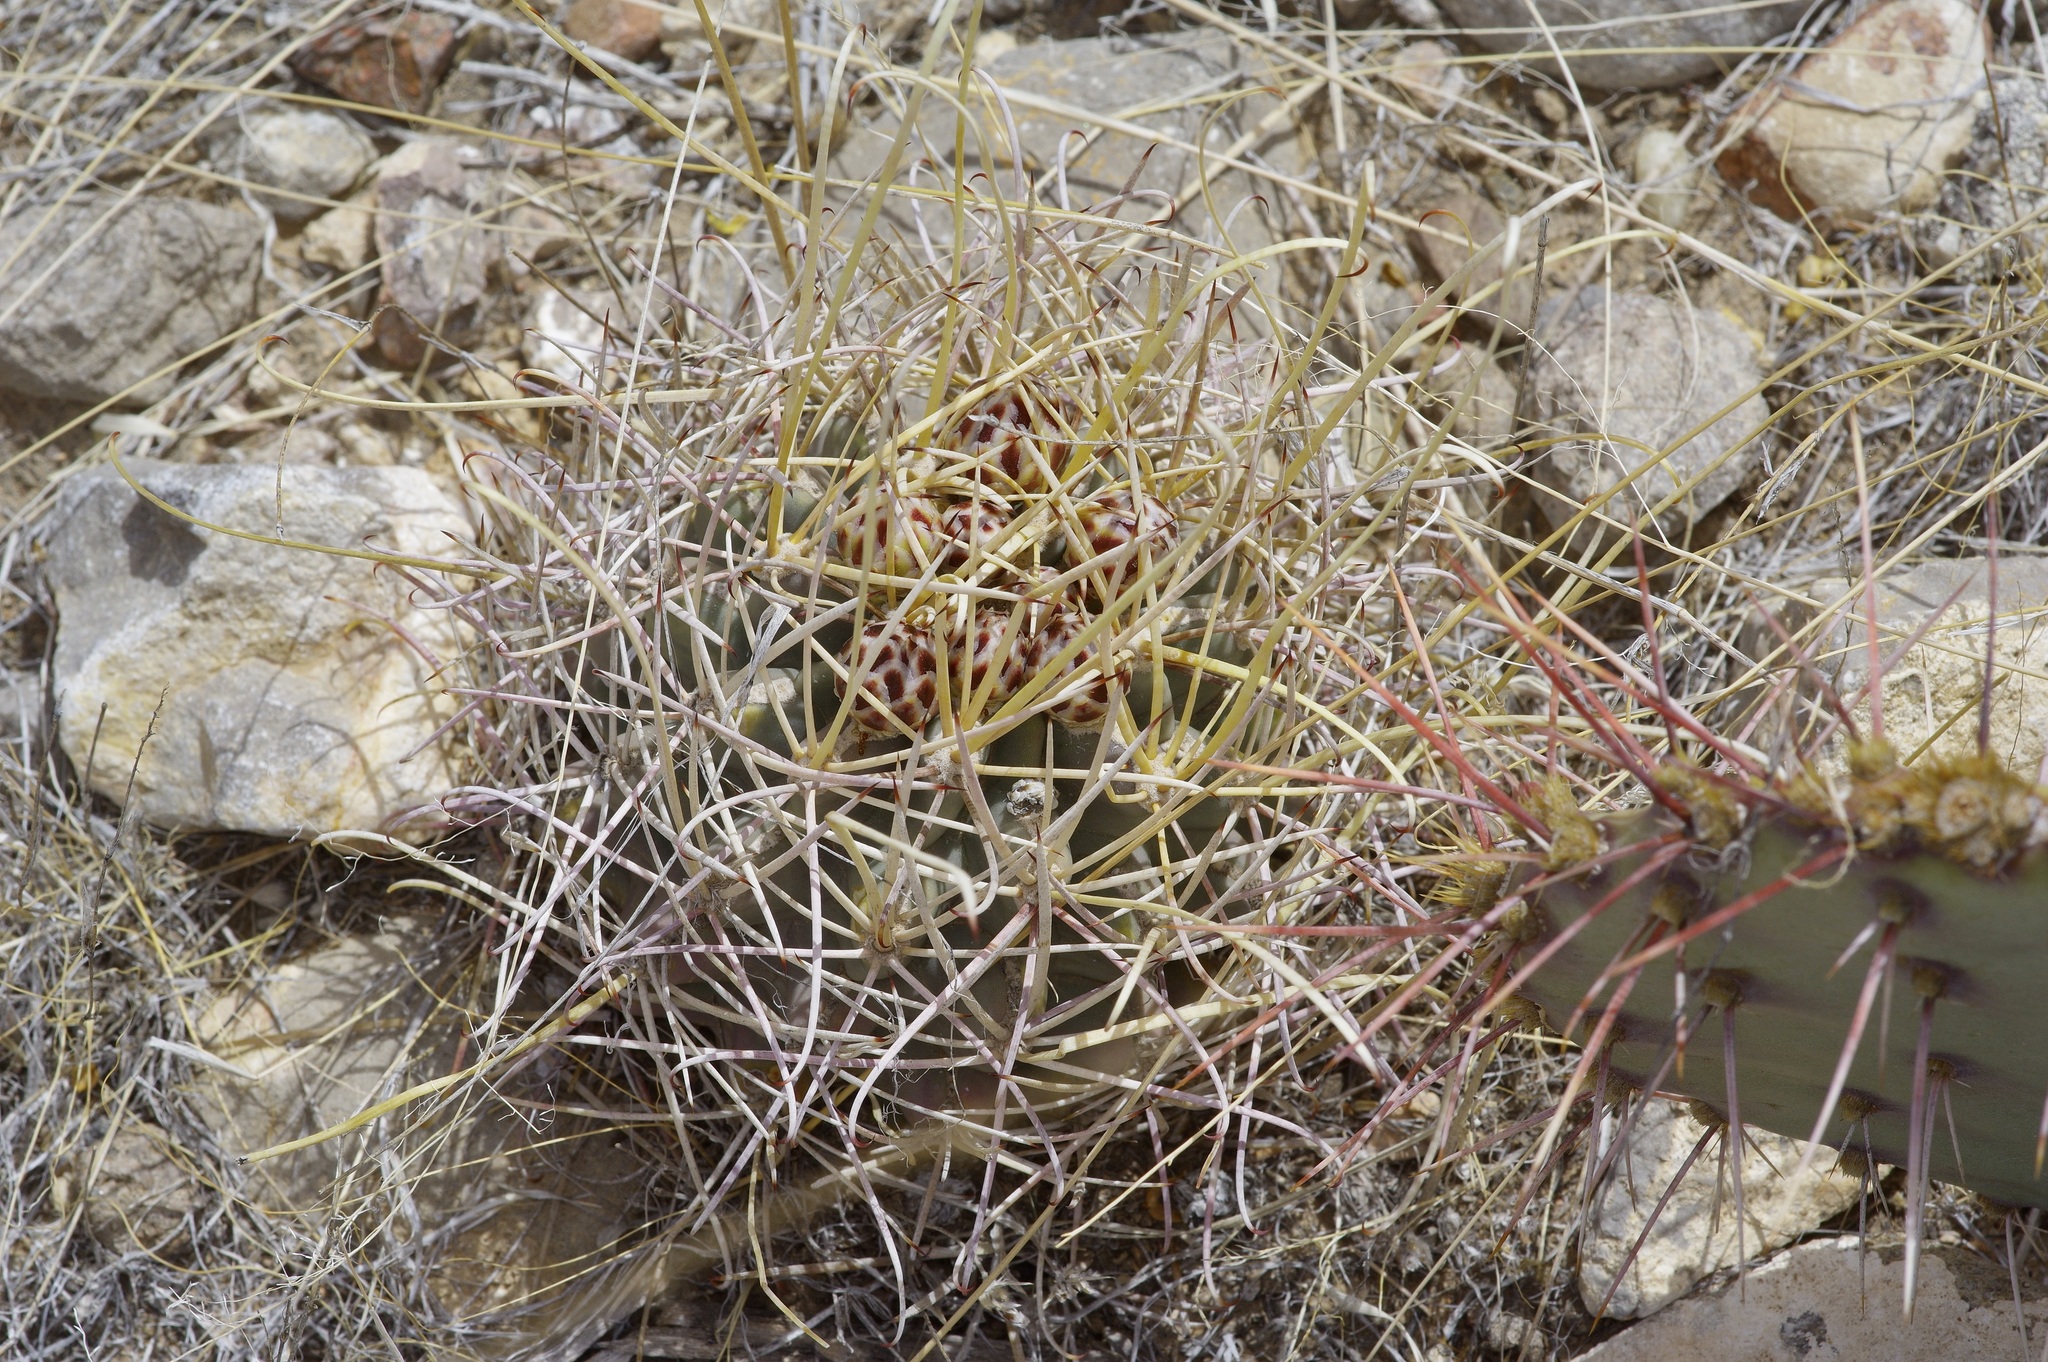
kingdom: Plantae
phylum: Tracheophyta
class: Magnoliopsida
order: Caryophyllales
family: Cactaceae
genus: Ferocactus
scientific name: Ferocactus uncinatus
